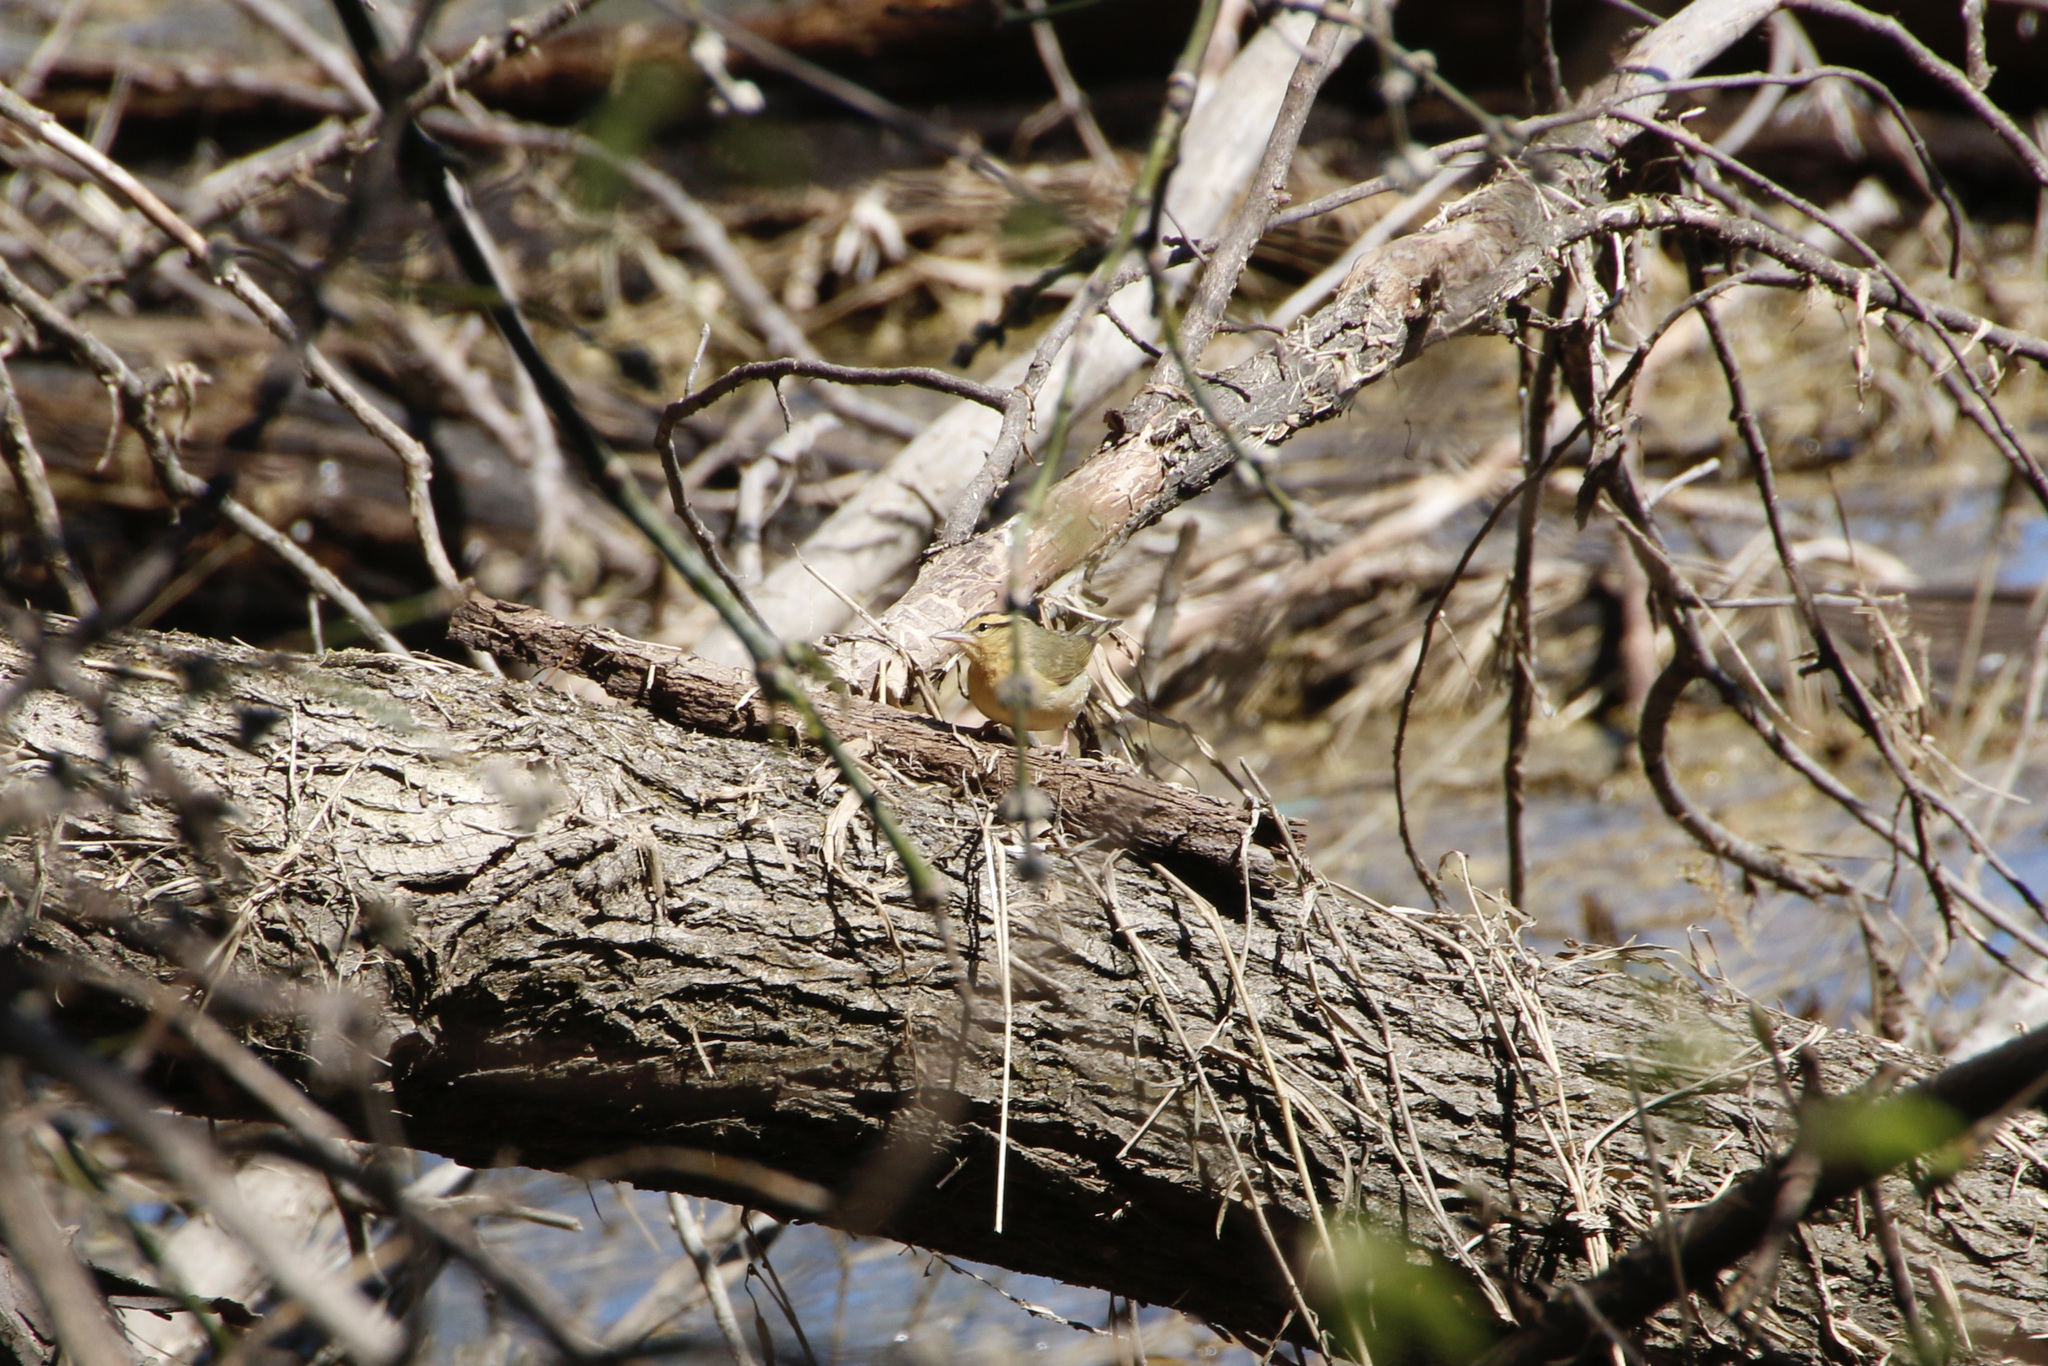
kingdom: Animalia
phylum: Chordata
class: Aves
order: Passeriformes
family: Parulidae
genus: Helmitheros
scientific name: Helmitheros vermivorum
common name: Worm-eating warbler
